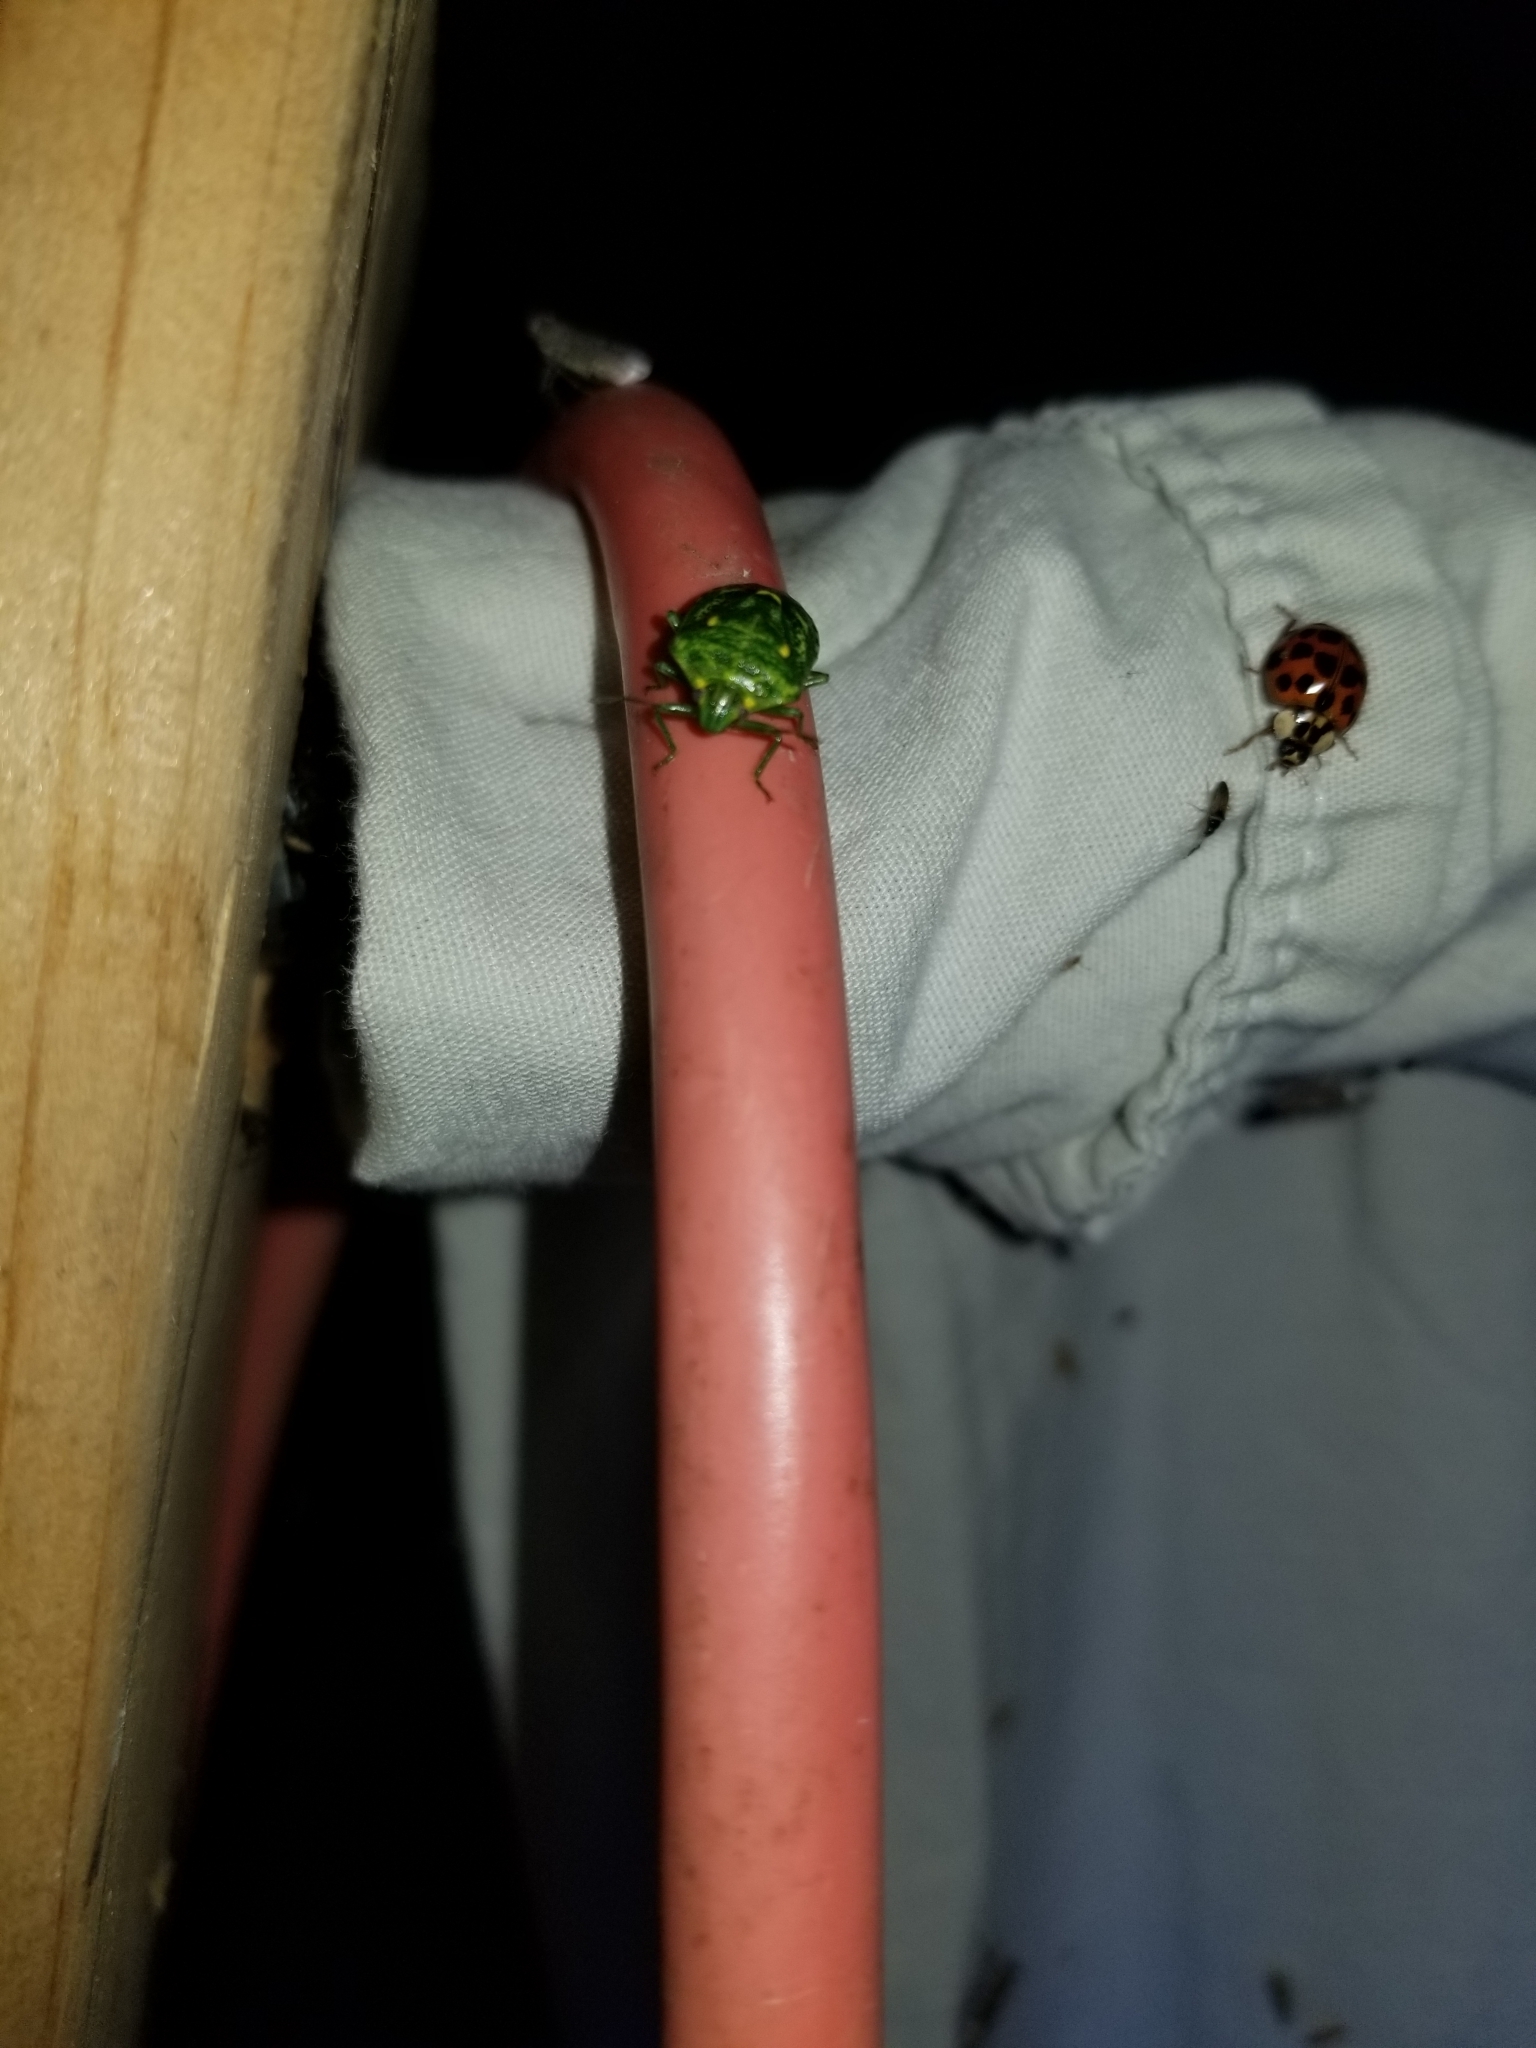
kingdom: Animalia
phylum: Arthropoda
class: Insecta
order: Hemiptera
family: Pentatomidae
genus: Banasa
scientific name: Banasa euchlora
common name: Cedar berry bug
